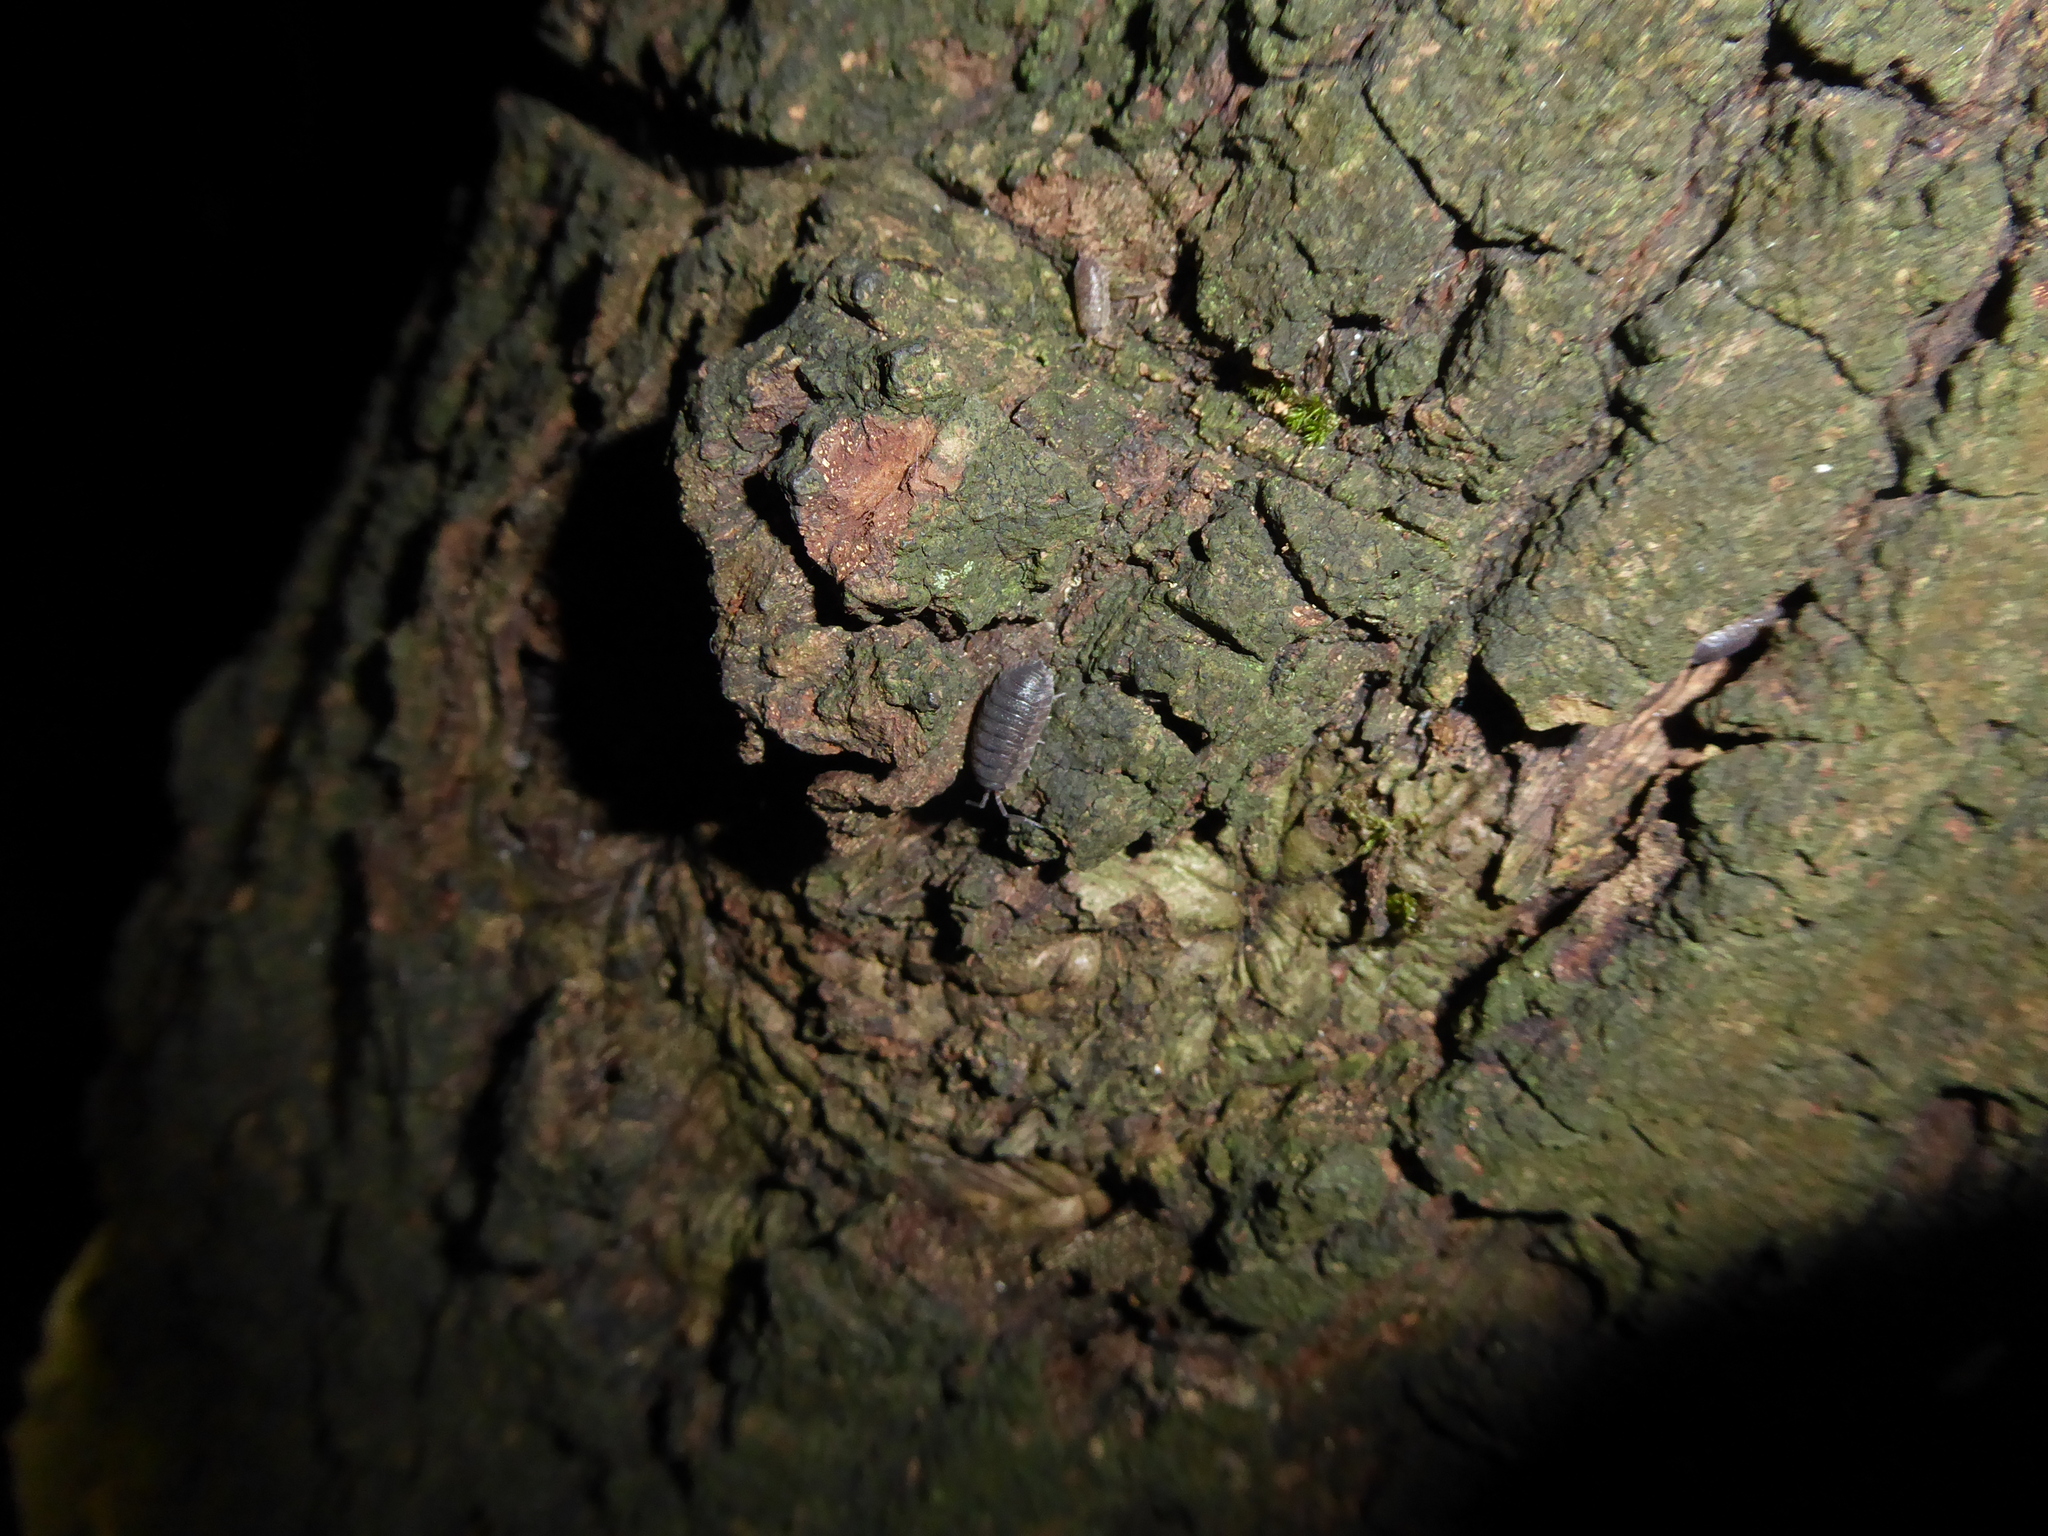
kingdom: Animalia
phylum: Arthropoda
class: Malacostraca
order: Isopoda
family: Porcellionidae
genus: Porcellio
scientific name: Porcellio scaber
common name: Common rough woodlouse
